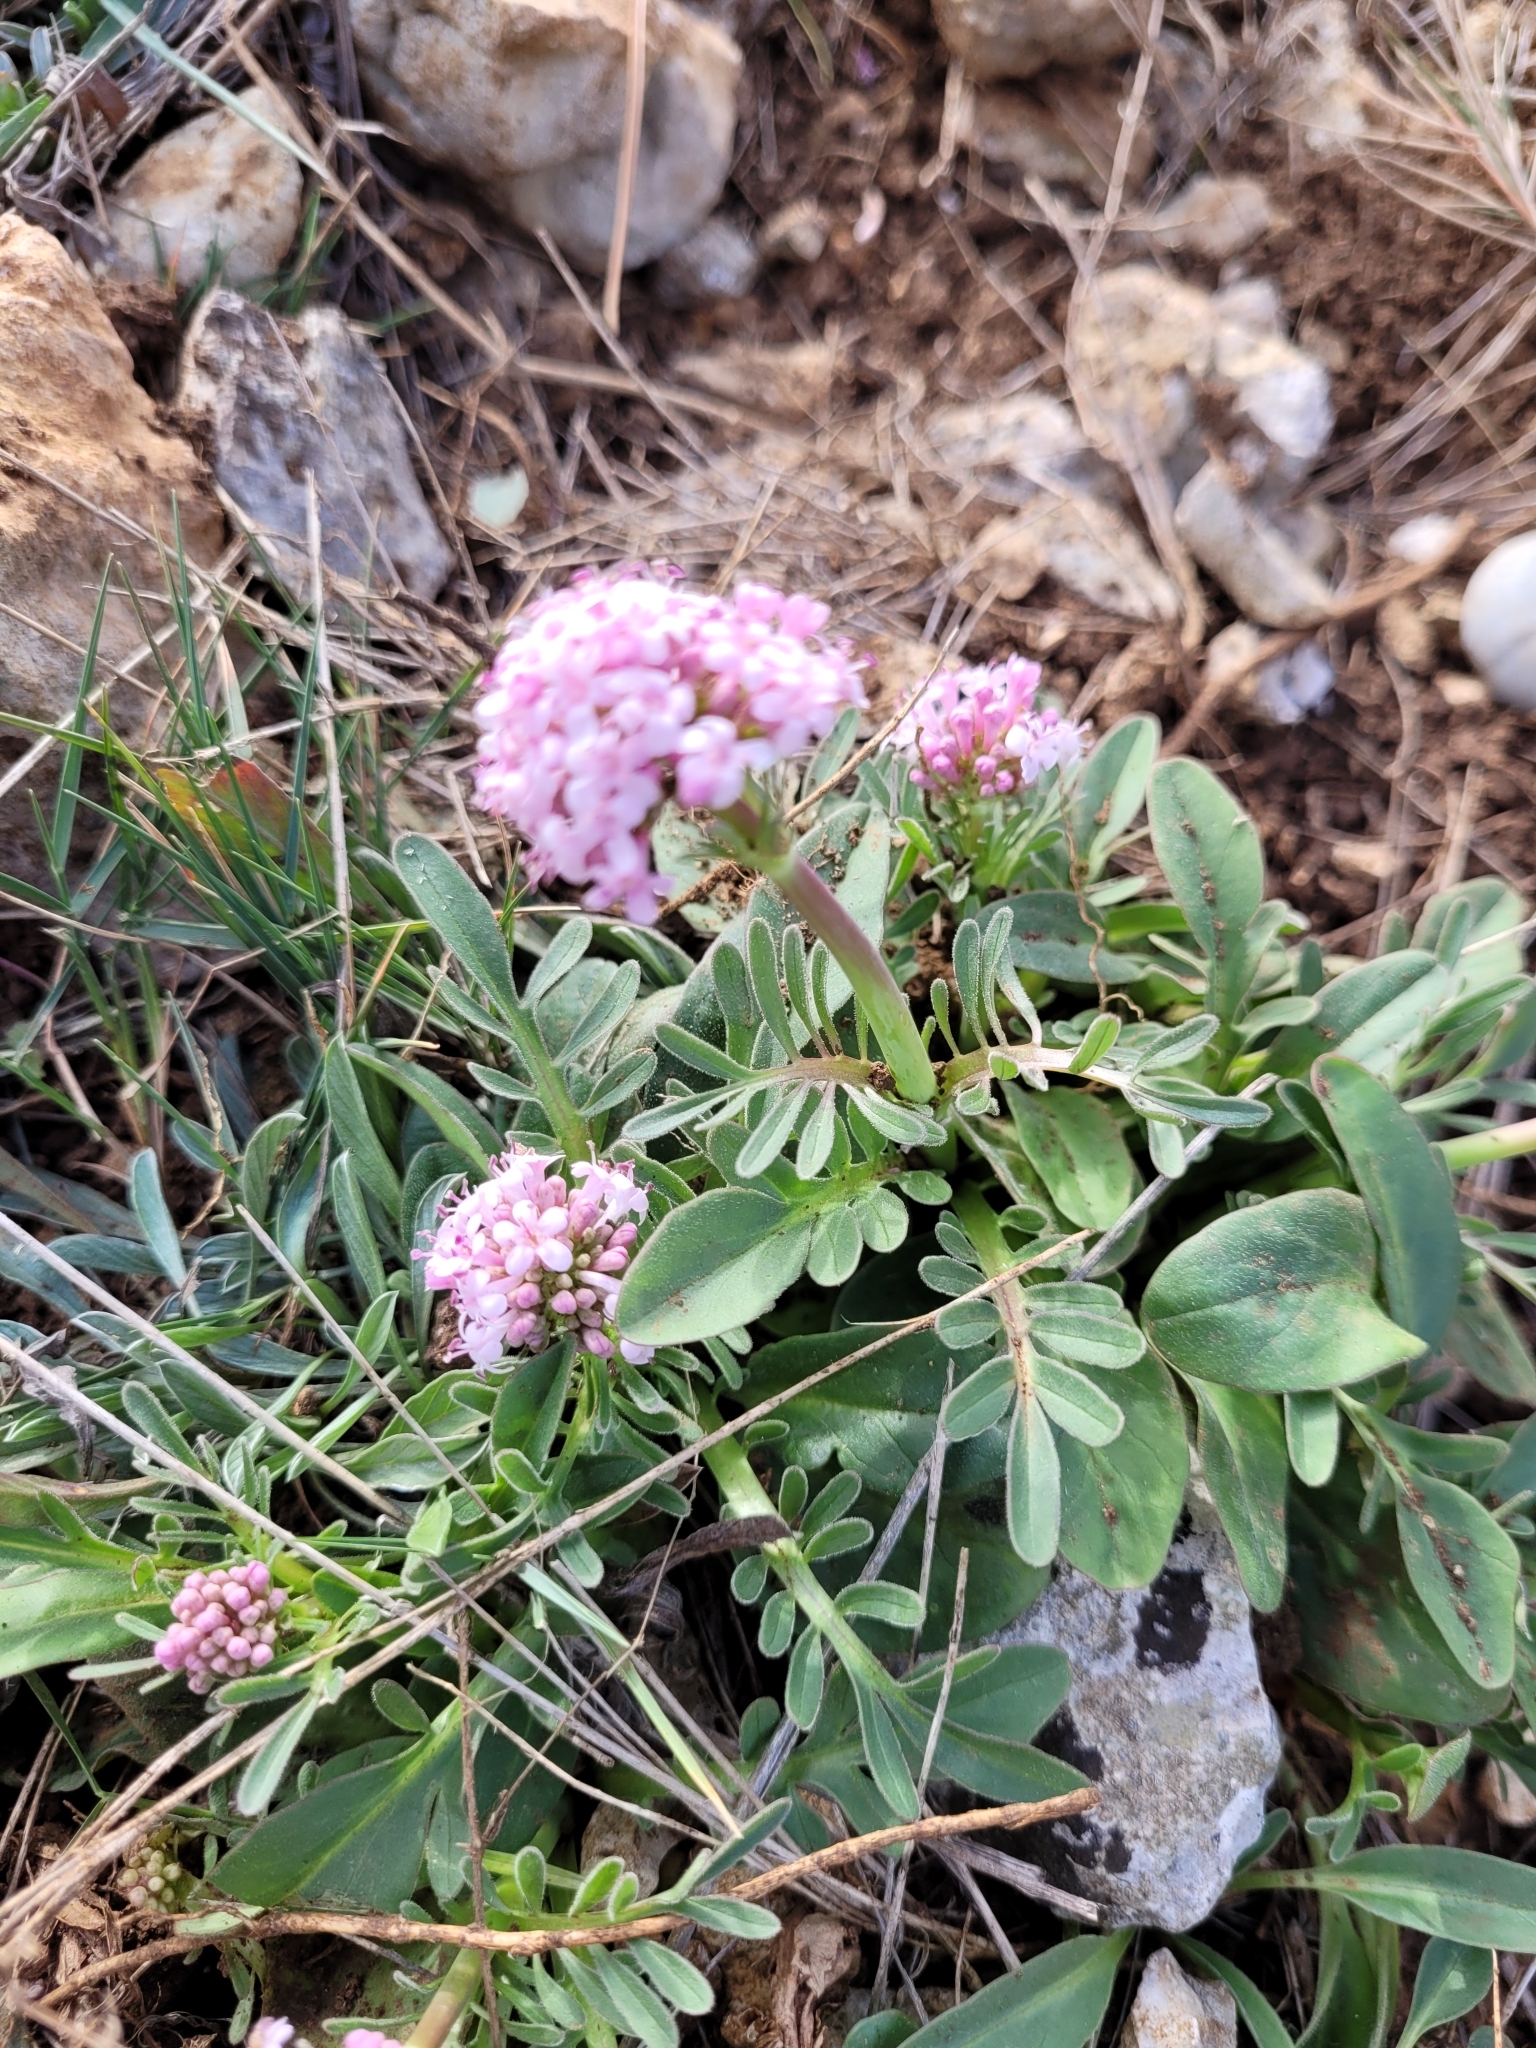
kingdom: Plantae
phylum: Tracheophyta
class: Magnoliopsida
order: Dipsacales
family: Caprifoliaceae
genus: Valeriana
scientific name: Valeriana tuberosa
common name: Tuberous valerian
